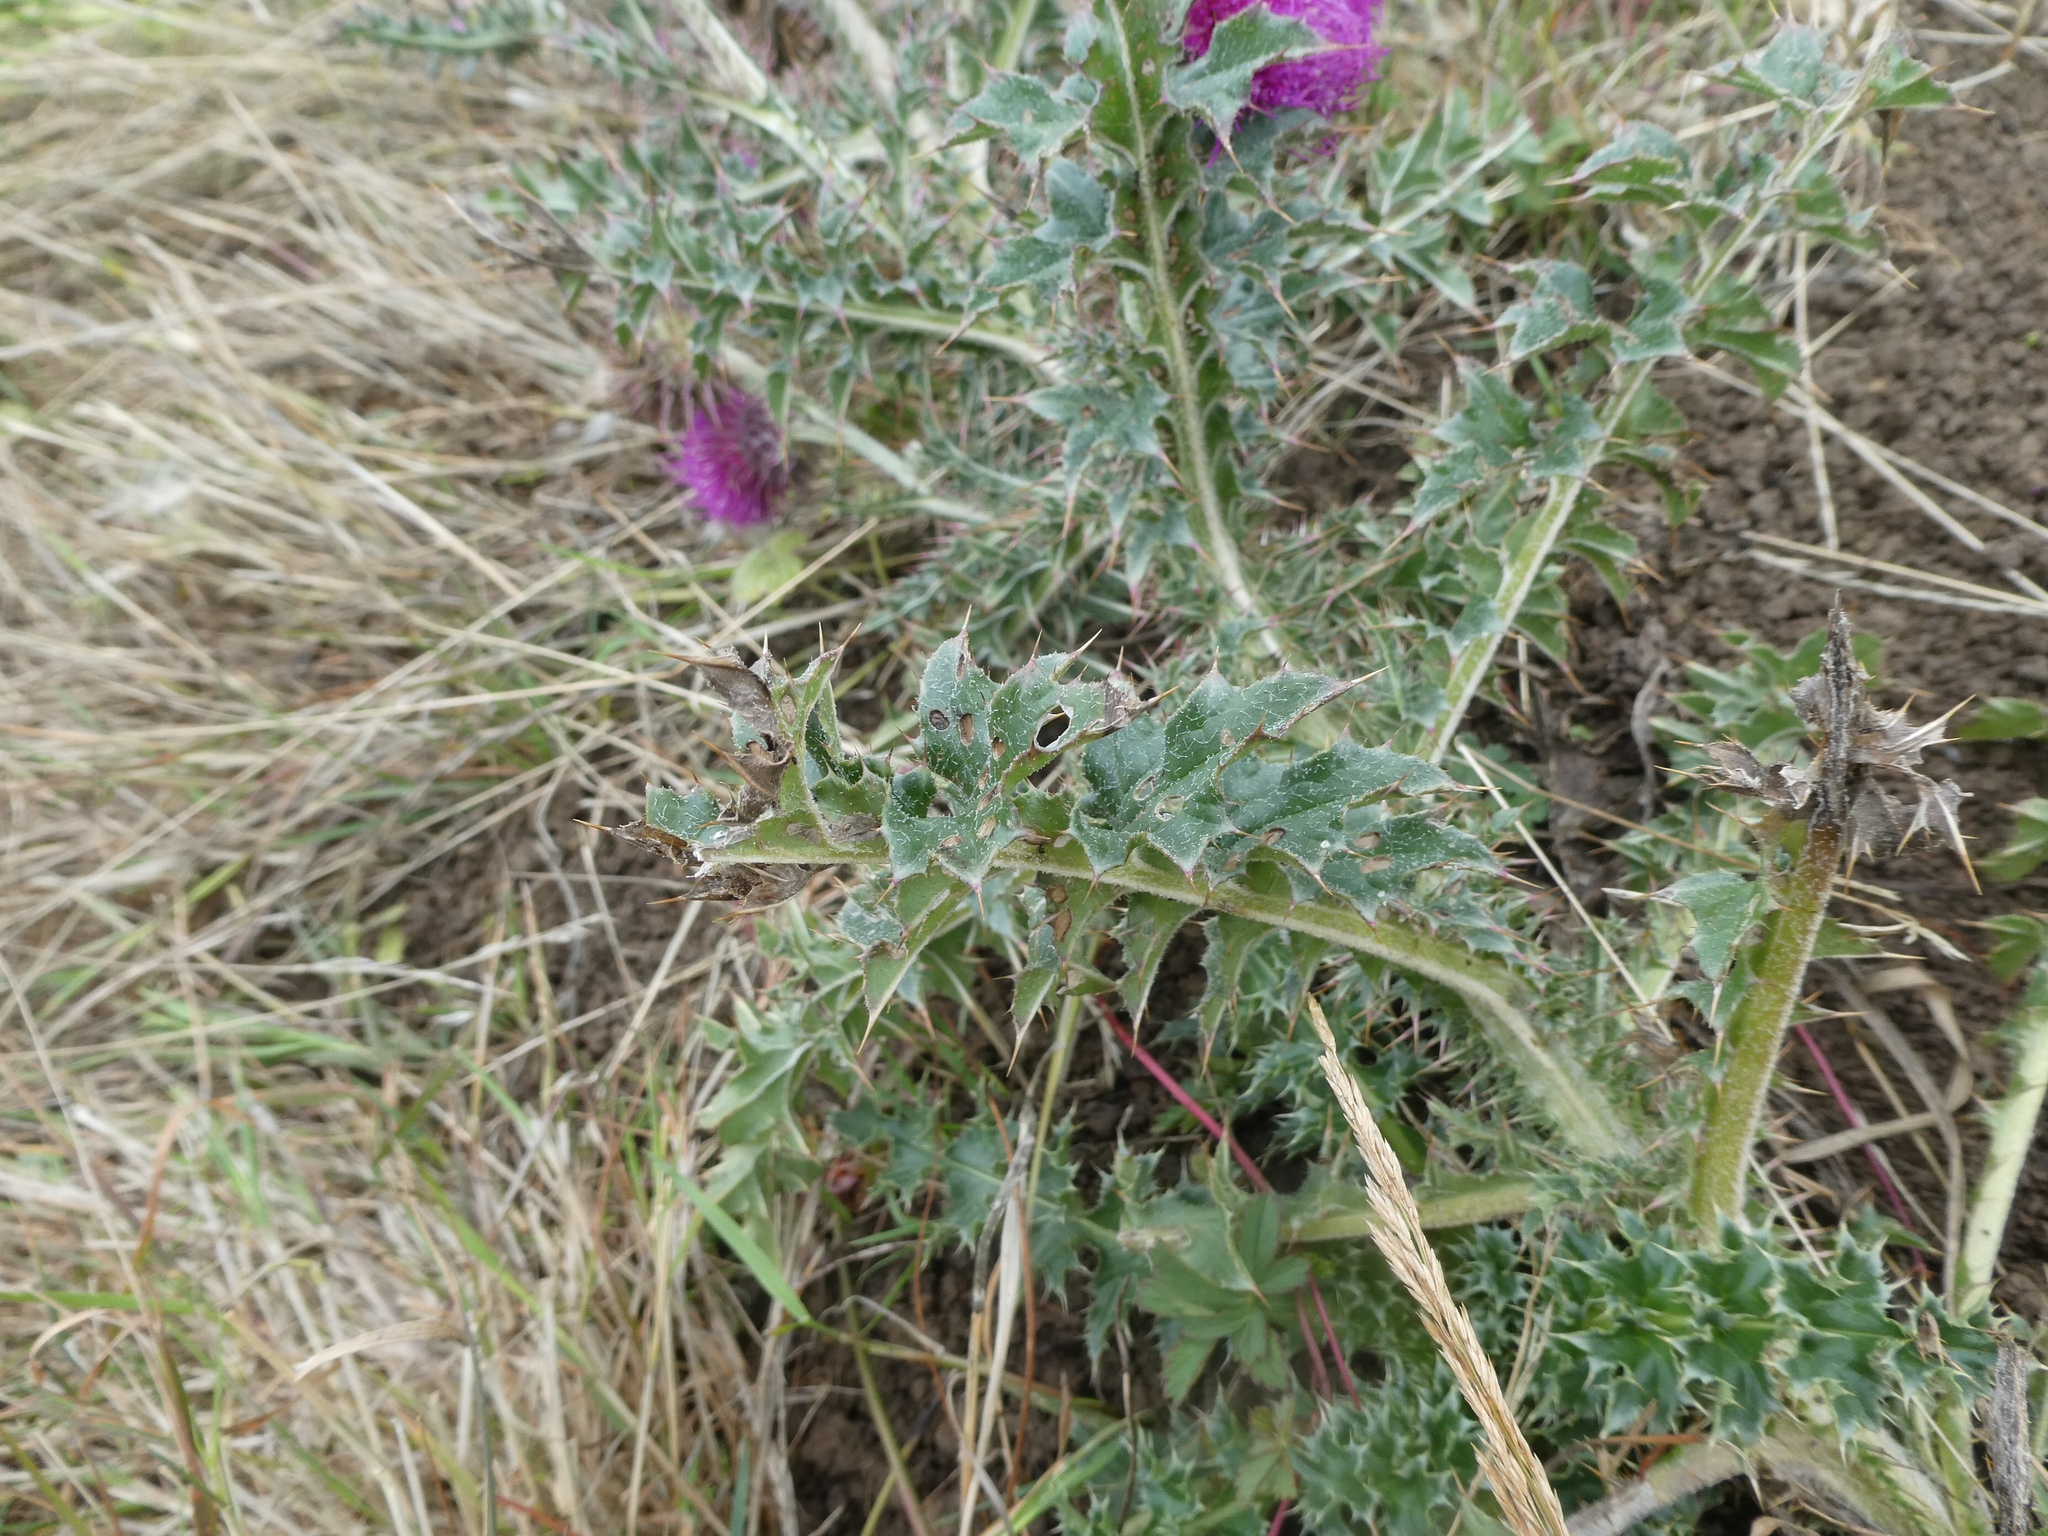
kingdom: Plantae
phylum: Tracheophyta
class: Magnoliopsida
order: Asterales
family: Asteraceae
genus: Carduus
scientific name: Carduus nutans
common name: Musk thistle
